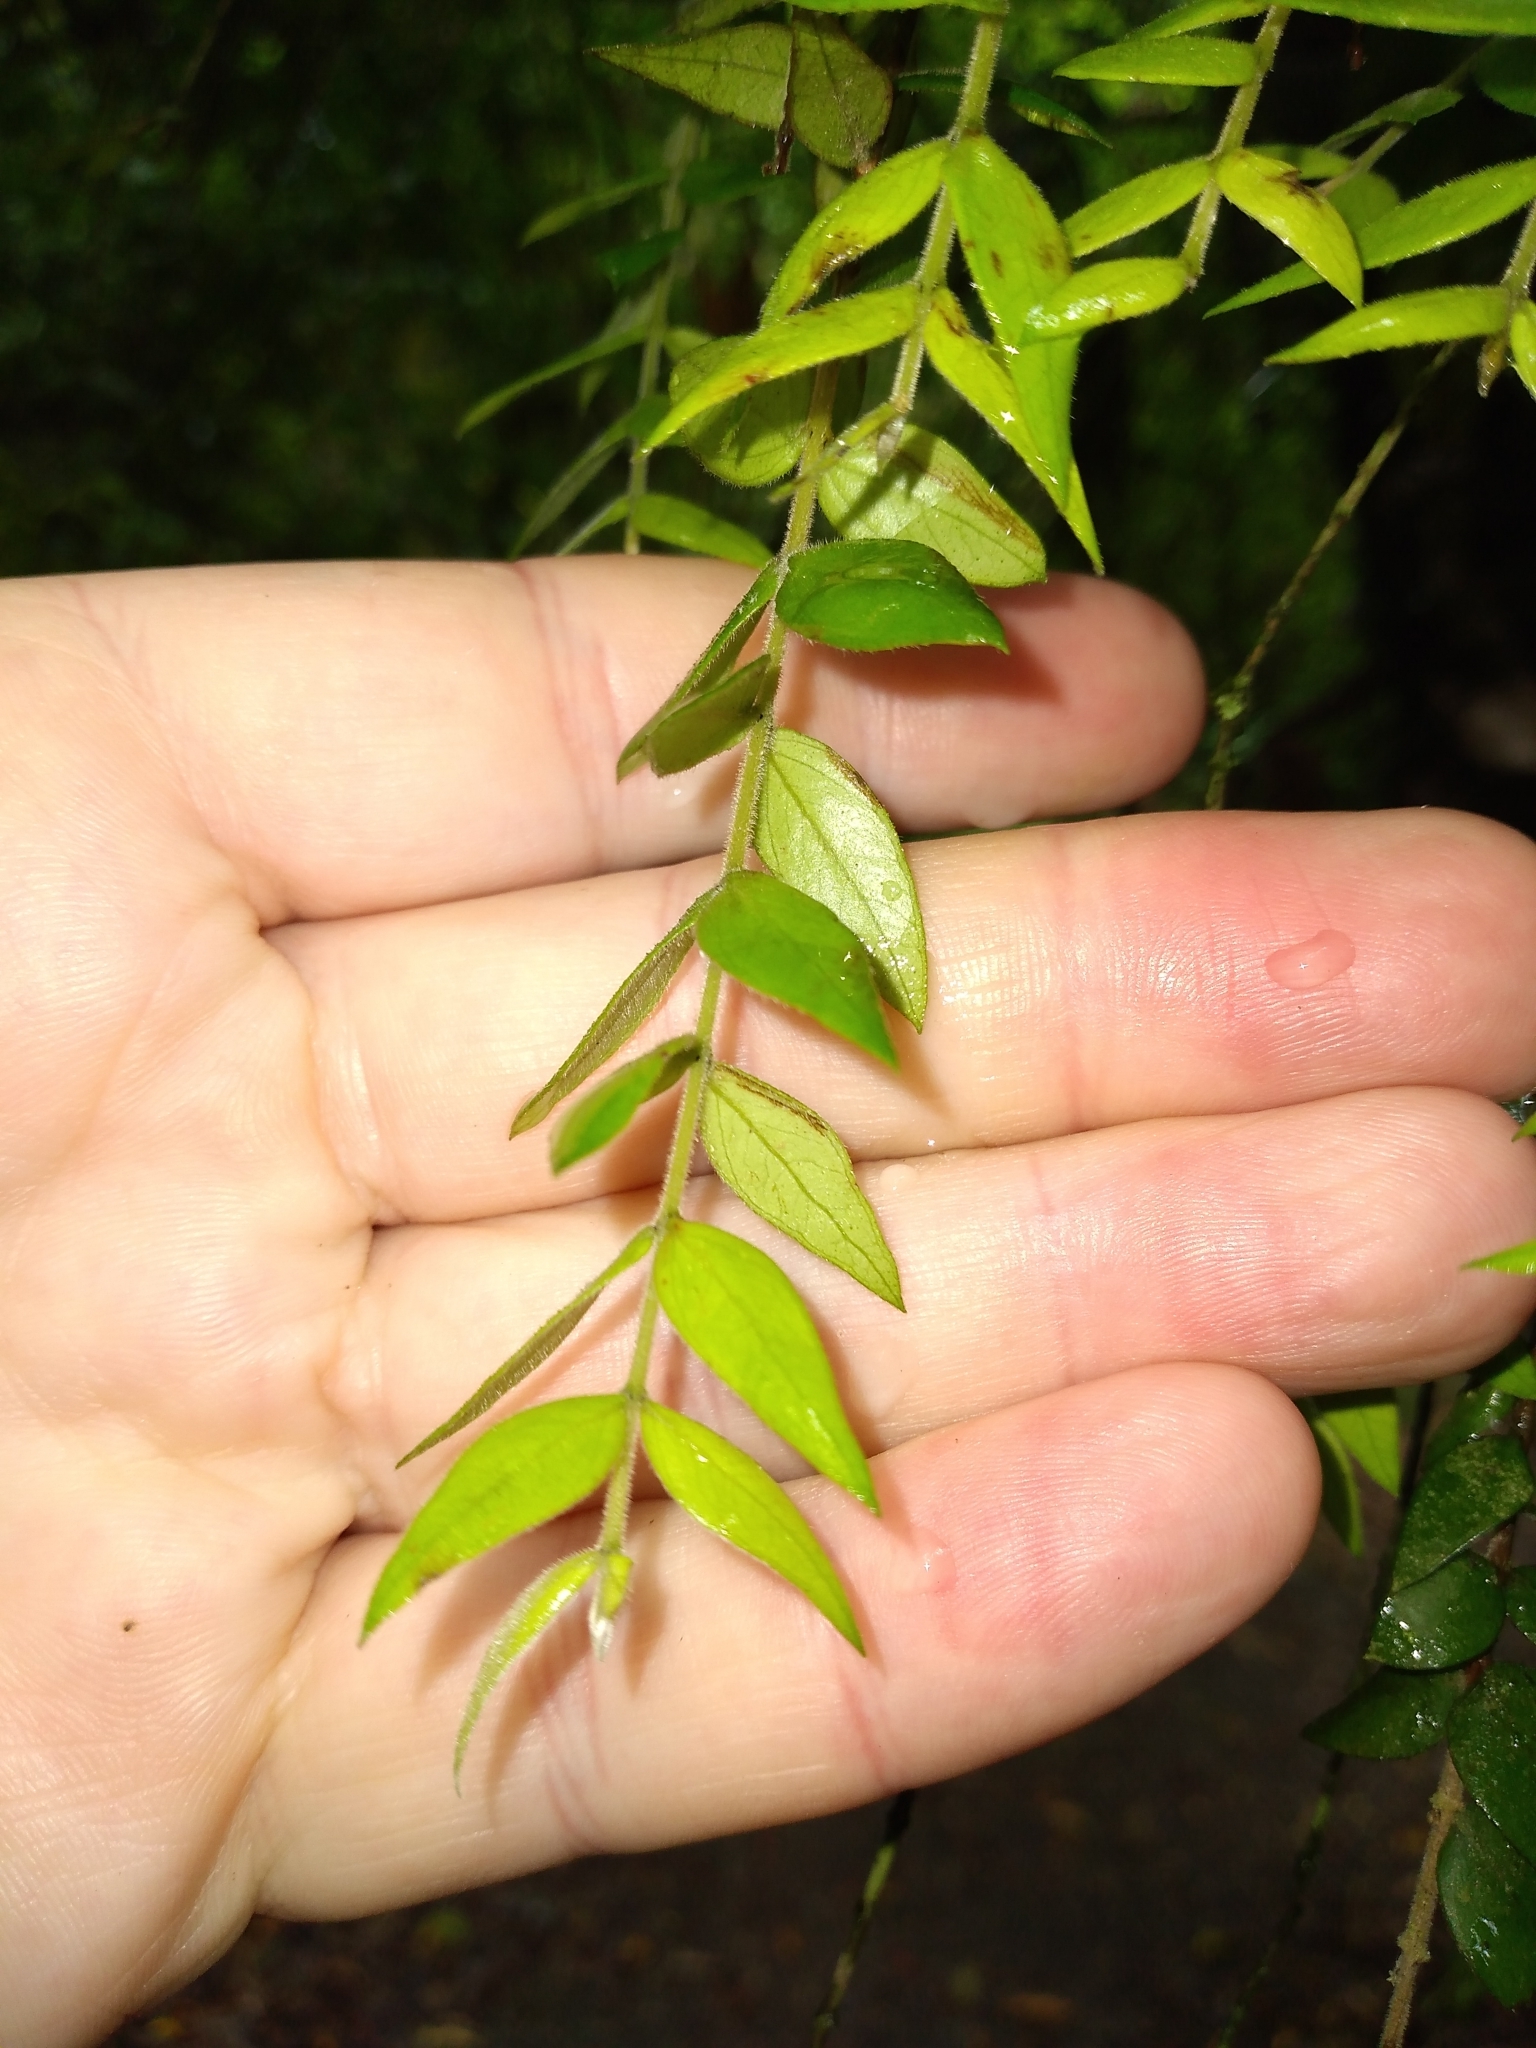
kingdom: Plantae
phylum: Tracheophyta
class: Magnoliopsida
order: Myrtales
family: Myrtaceae
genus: Metrosideros
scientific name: Metrosideros colensoi
